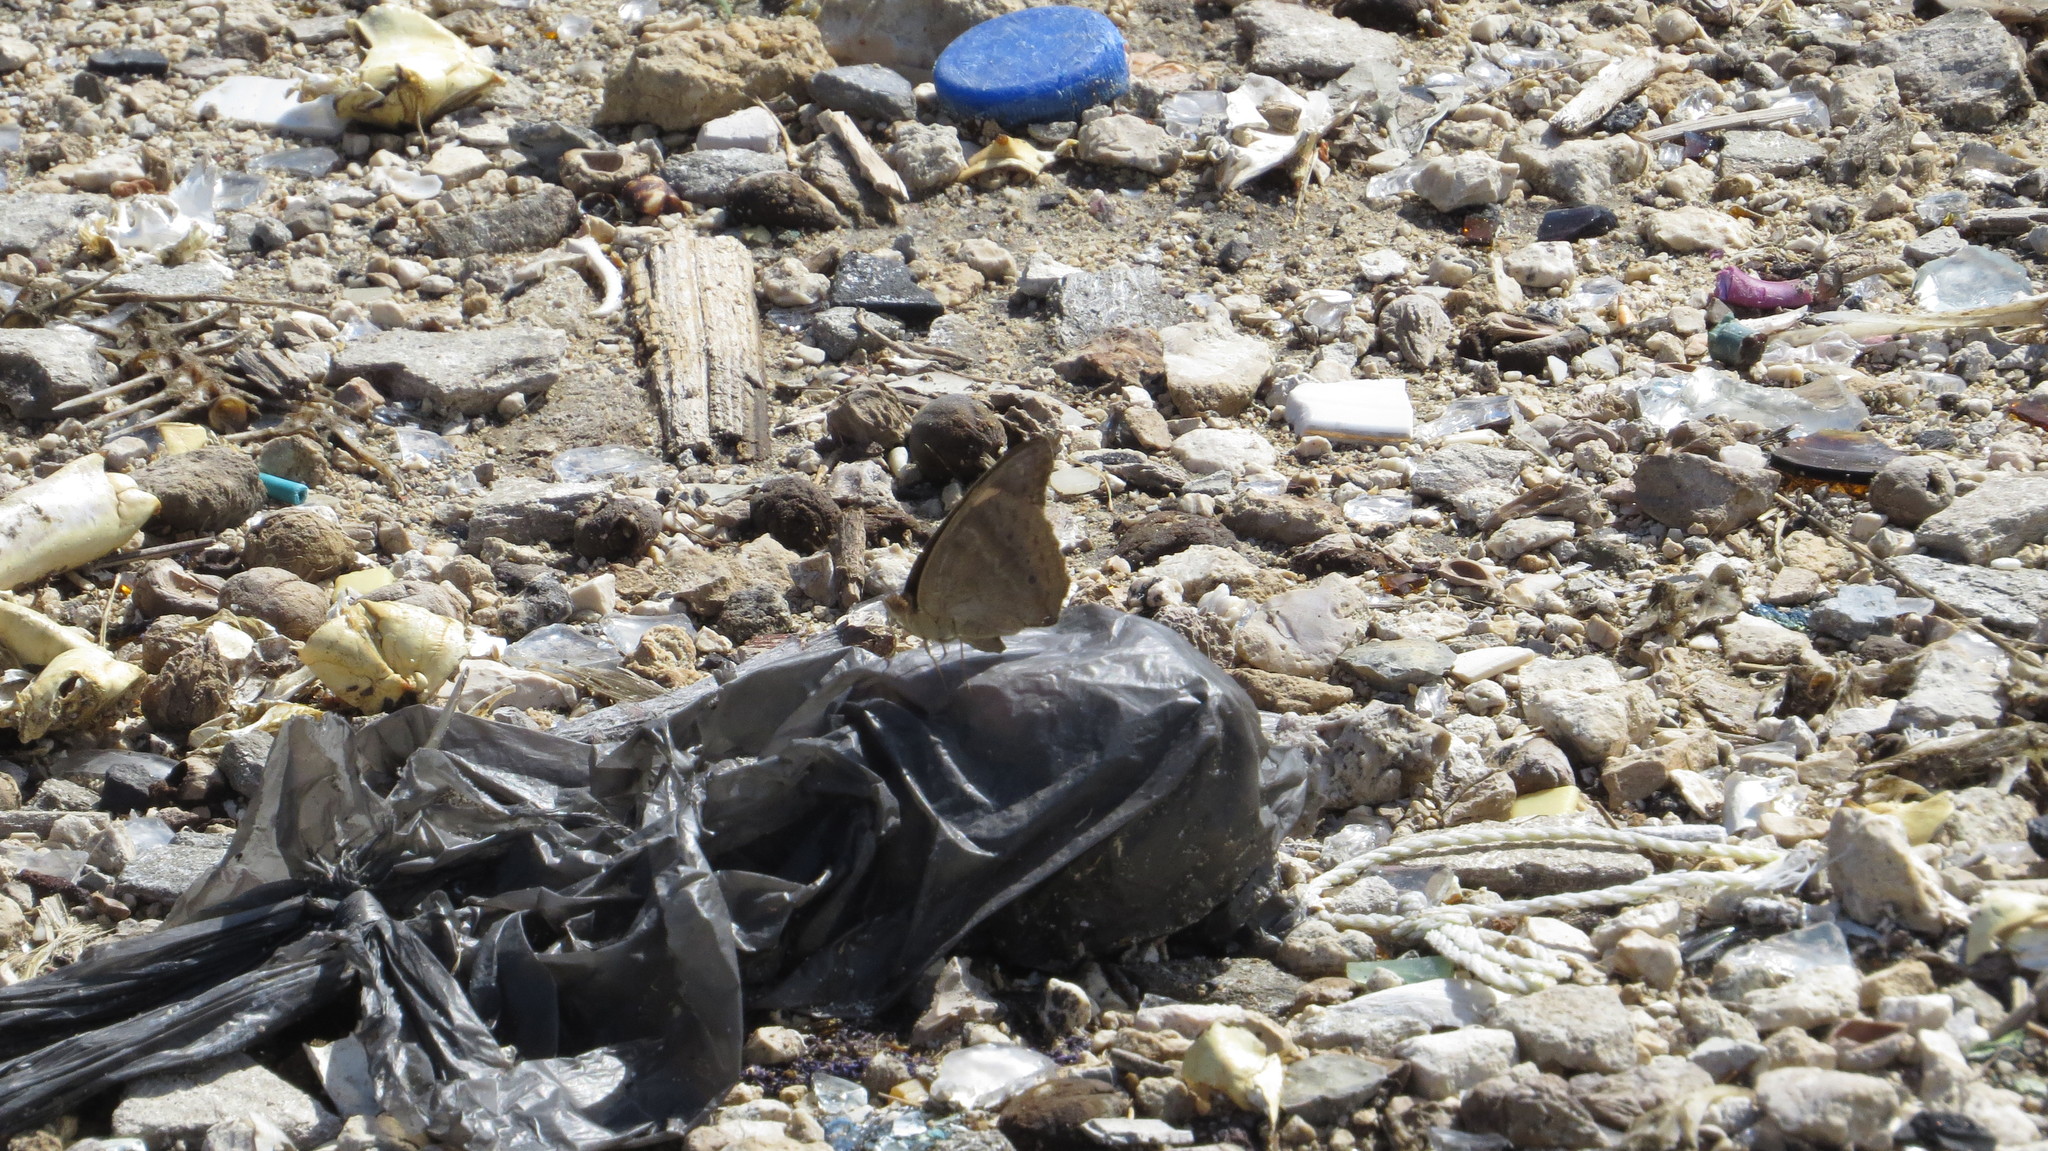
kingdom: Animalia
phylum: Arthropoda
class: Insecta
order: Lepidoptera
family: Nymphalidae
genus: Junonia
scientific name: Junonia neildi
